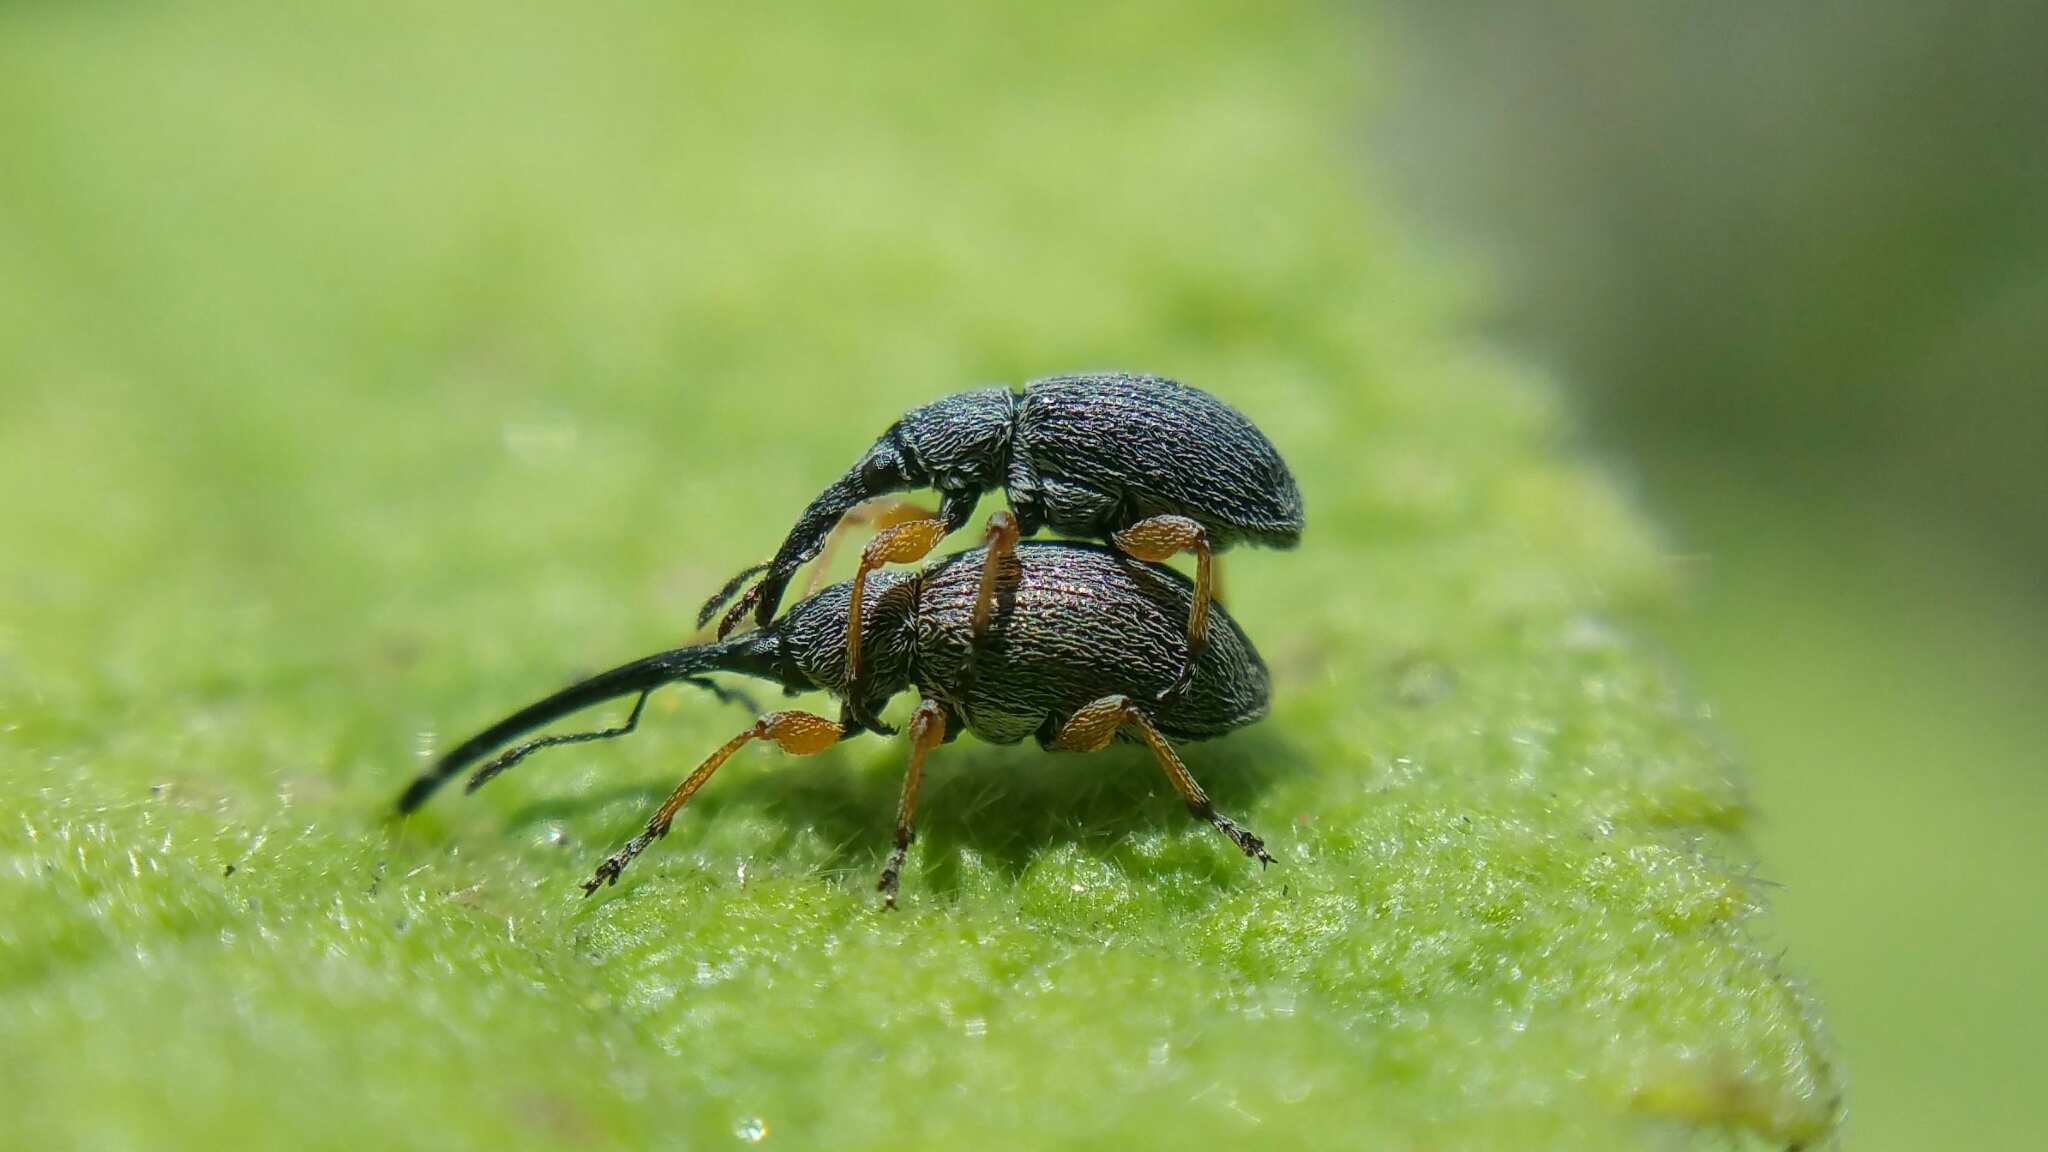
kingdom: Animalia
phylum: Arthropoda
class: Insecta
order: Coleoptera
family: Brentidae
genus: Rhopalapion
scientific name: Rhopalapion longirostre
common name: Hollyhock weevil
